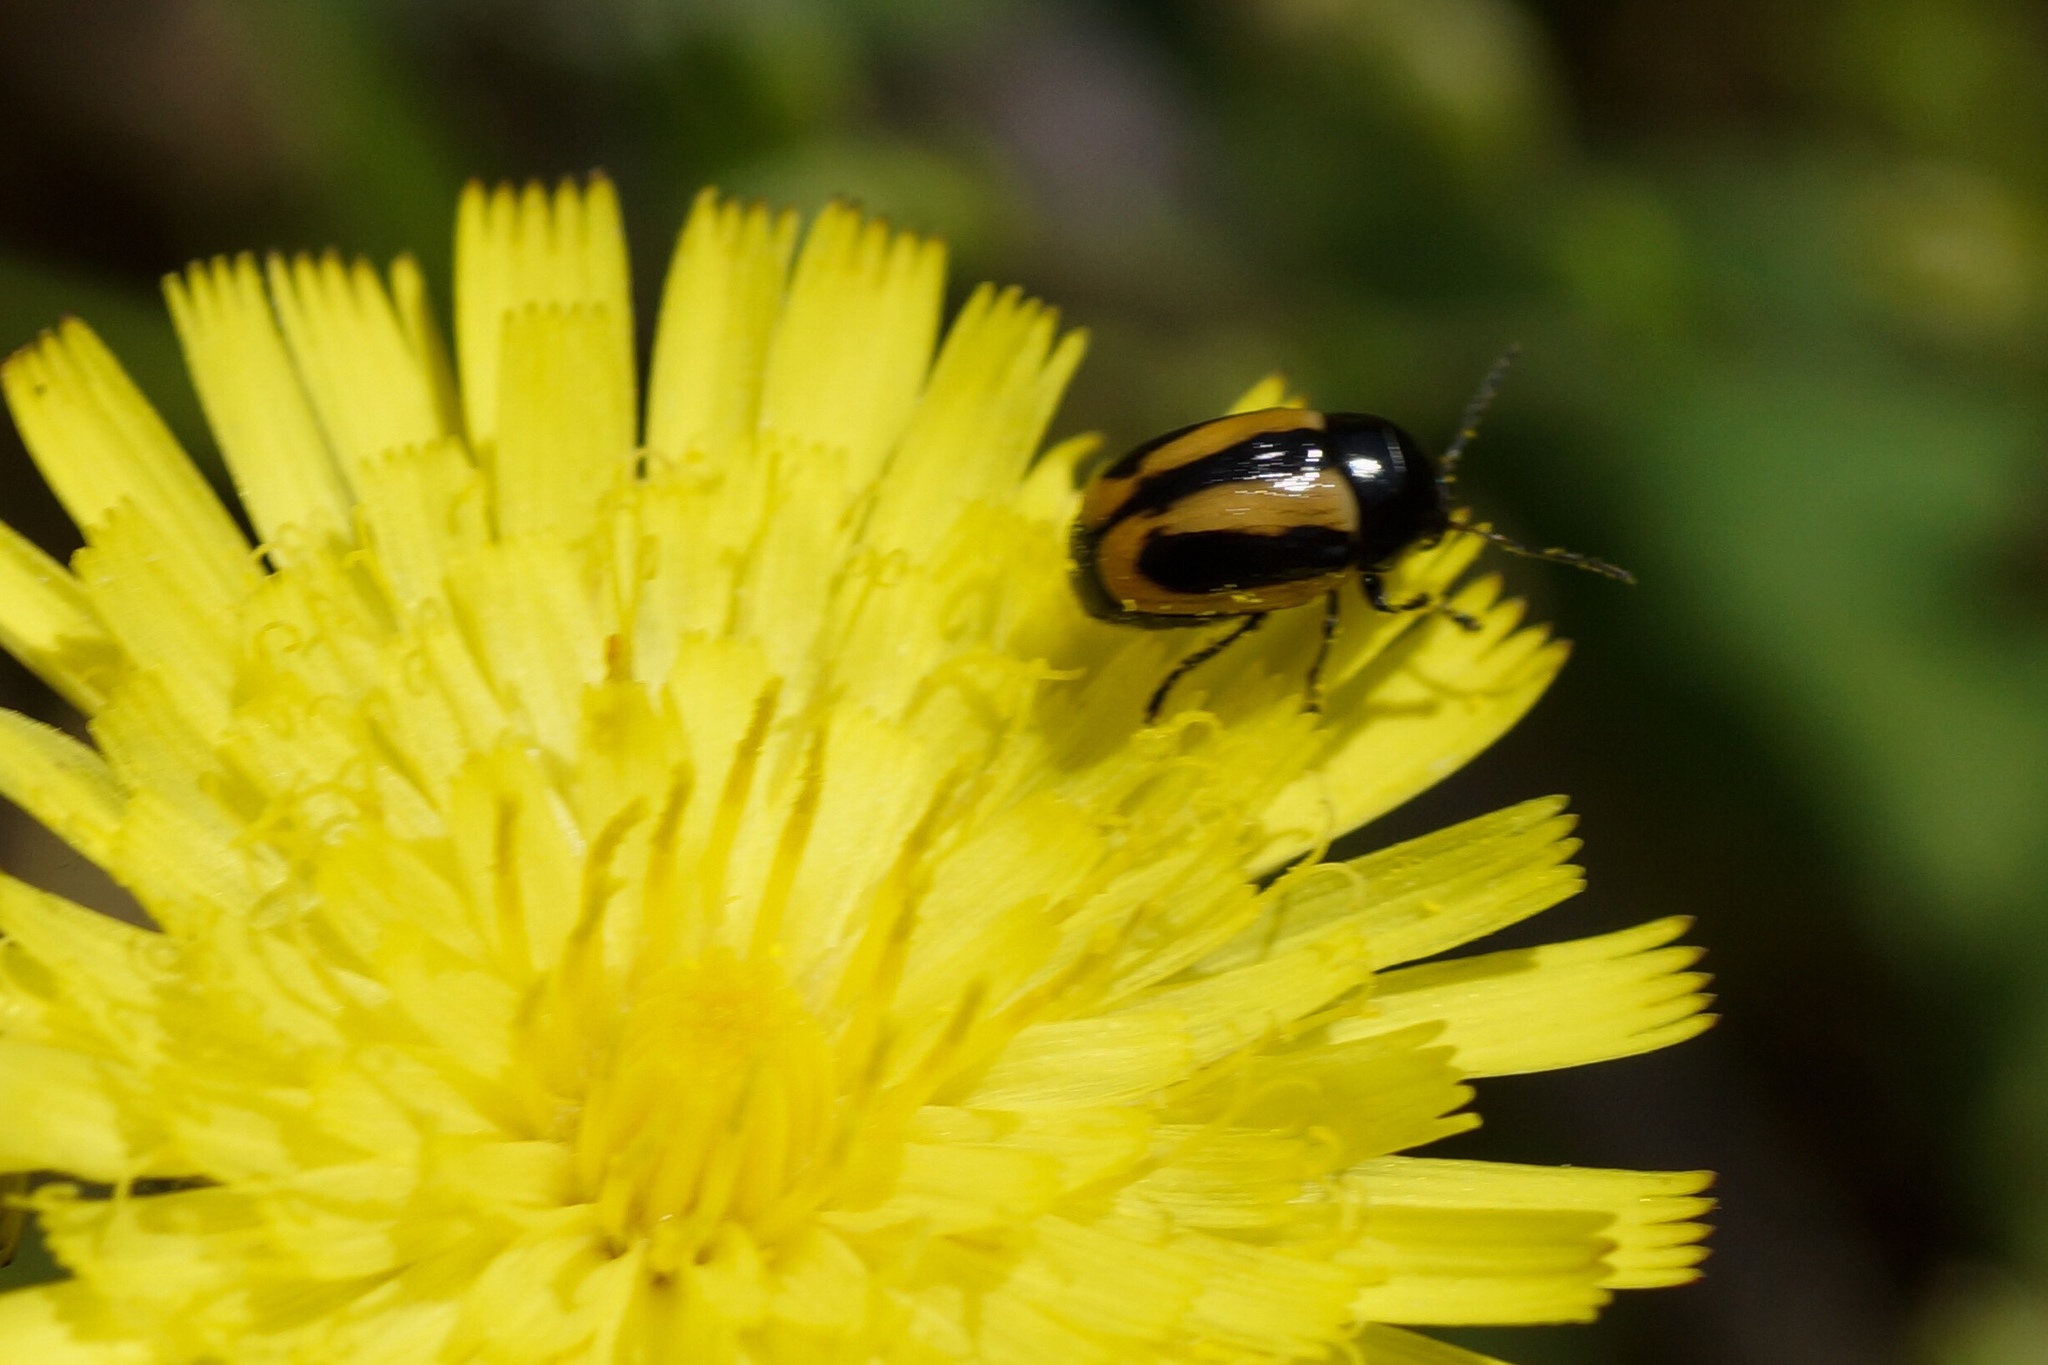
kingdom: Animalia
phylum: Arthropoda
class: Insecta
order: Coleoptera
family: Chrysomelidae
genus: Acalymma
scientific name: Acalymma vittatum
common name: Striped cucumber beetle
